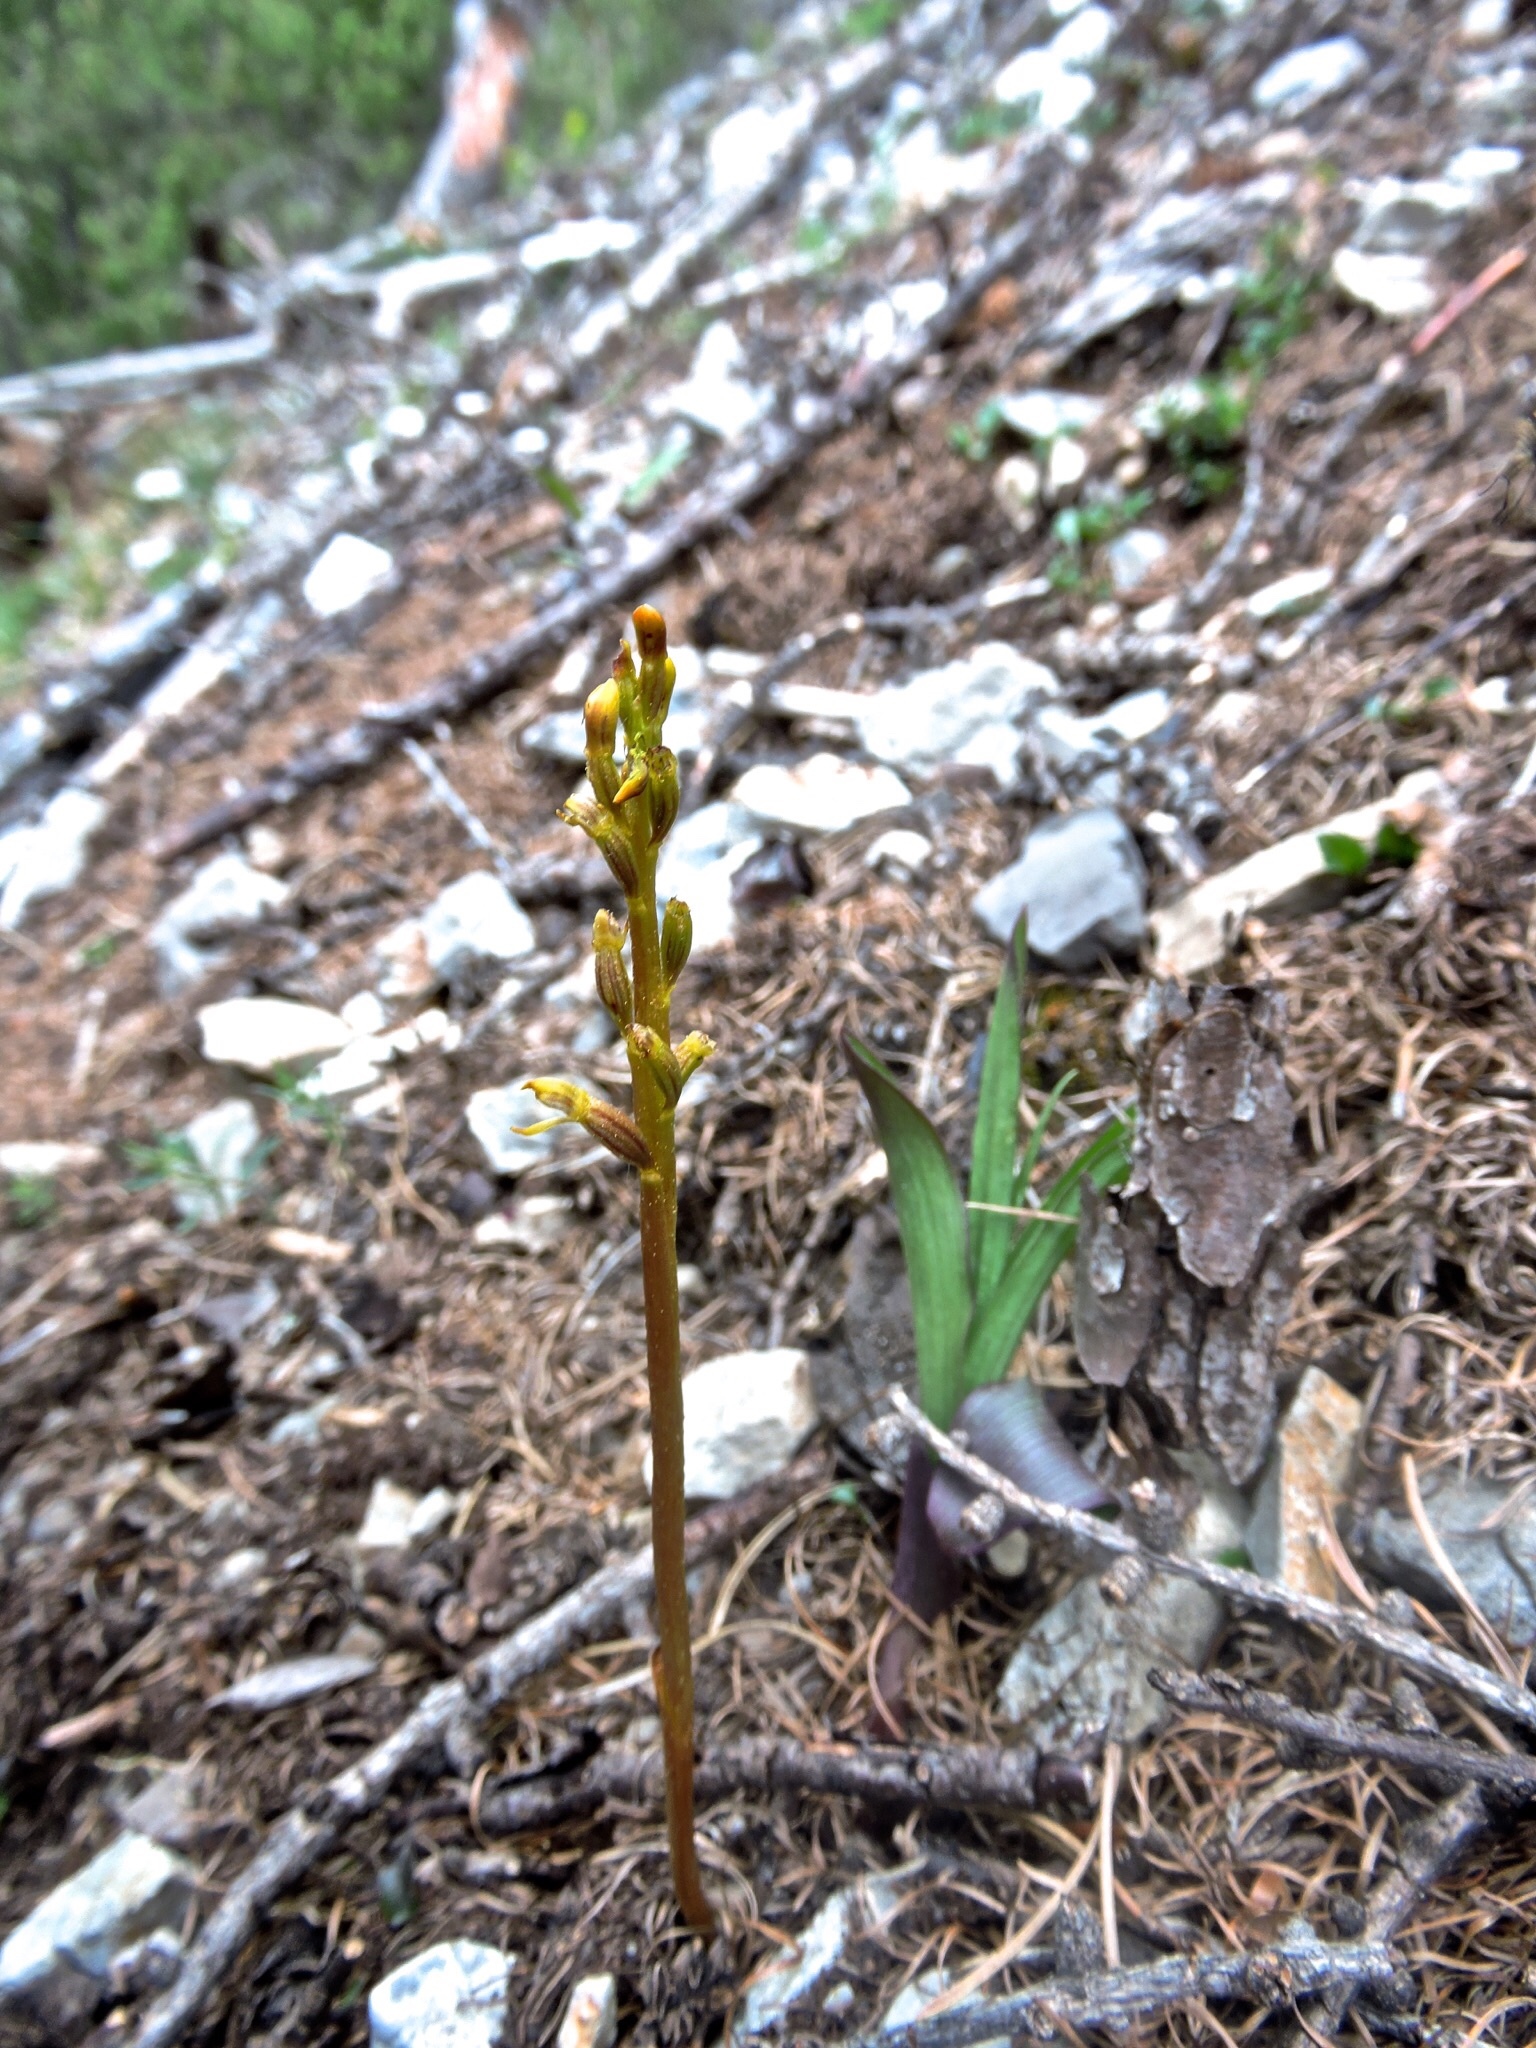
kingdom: Plantae
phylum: Tracheophyta
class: Liliopsida
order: Asparagales
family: Orchidaceae
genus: Corallorhiza
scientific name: Corallorhiza trifida
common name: Yellow coralroot
